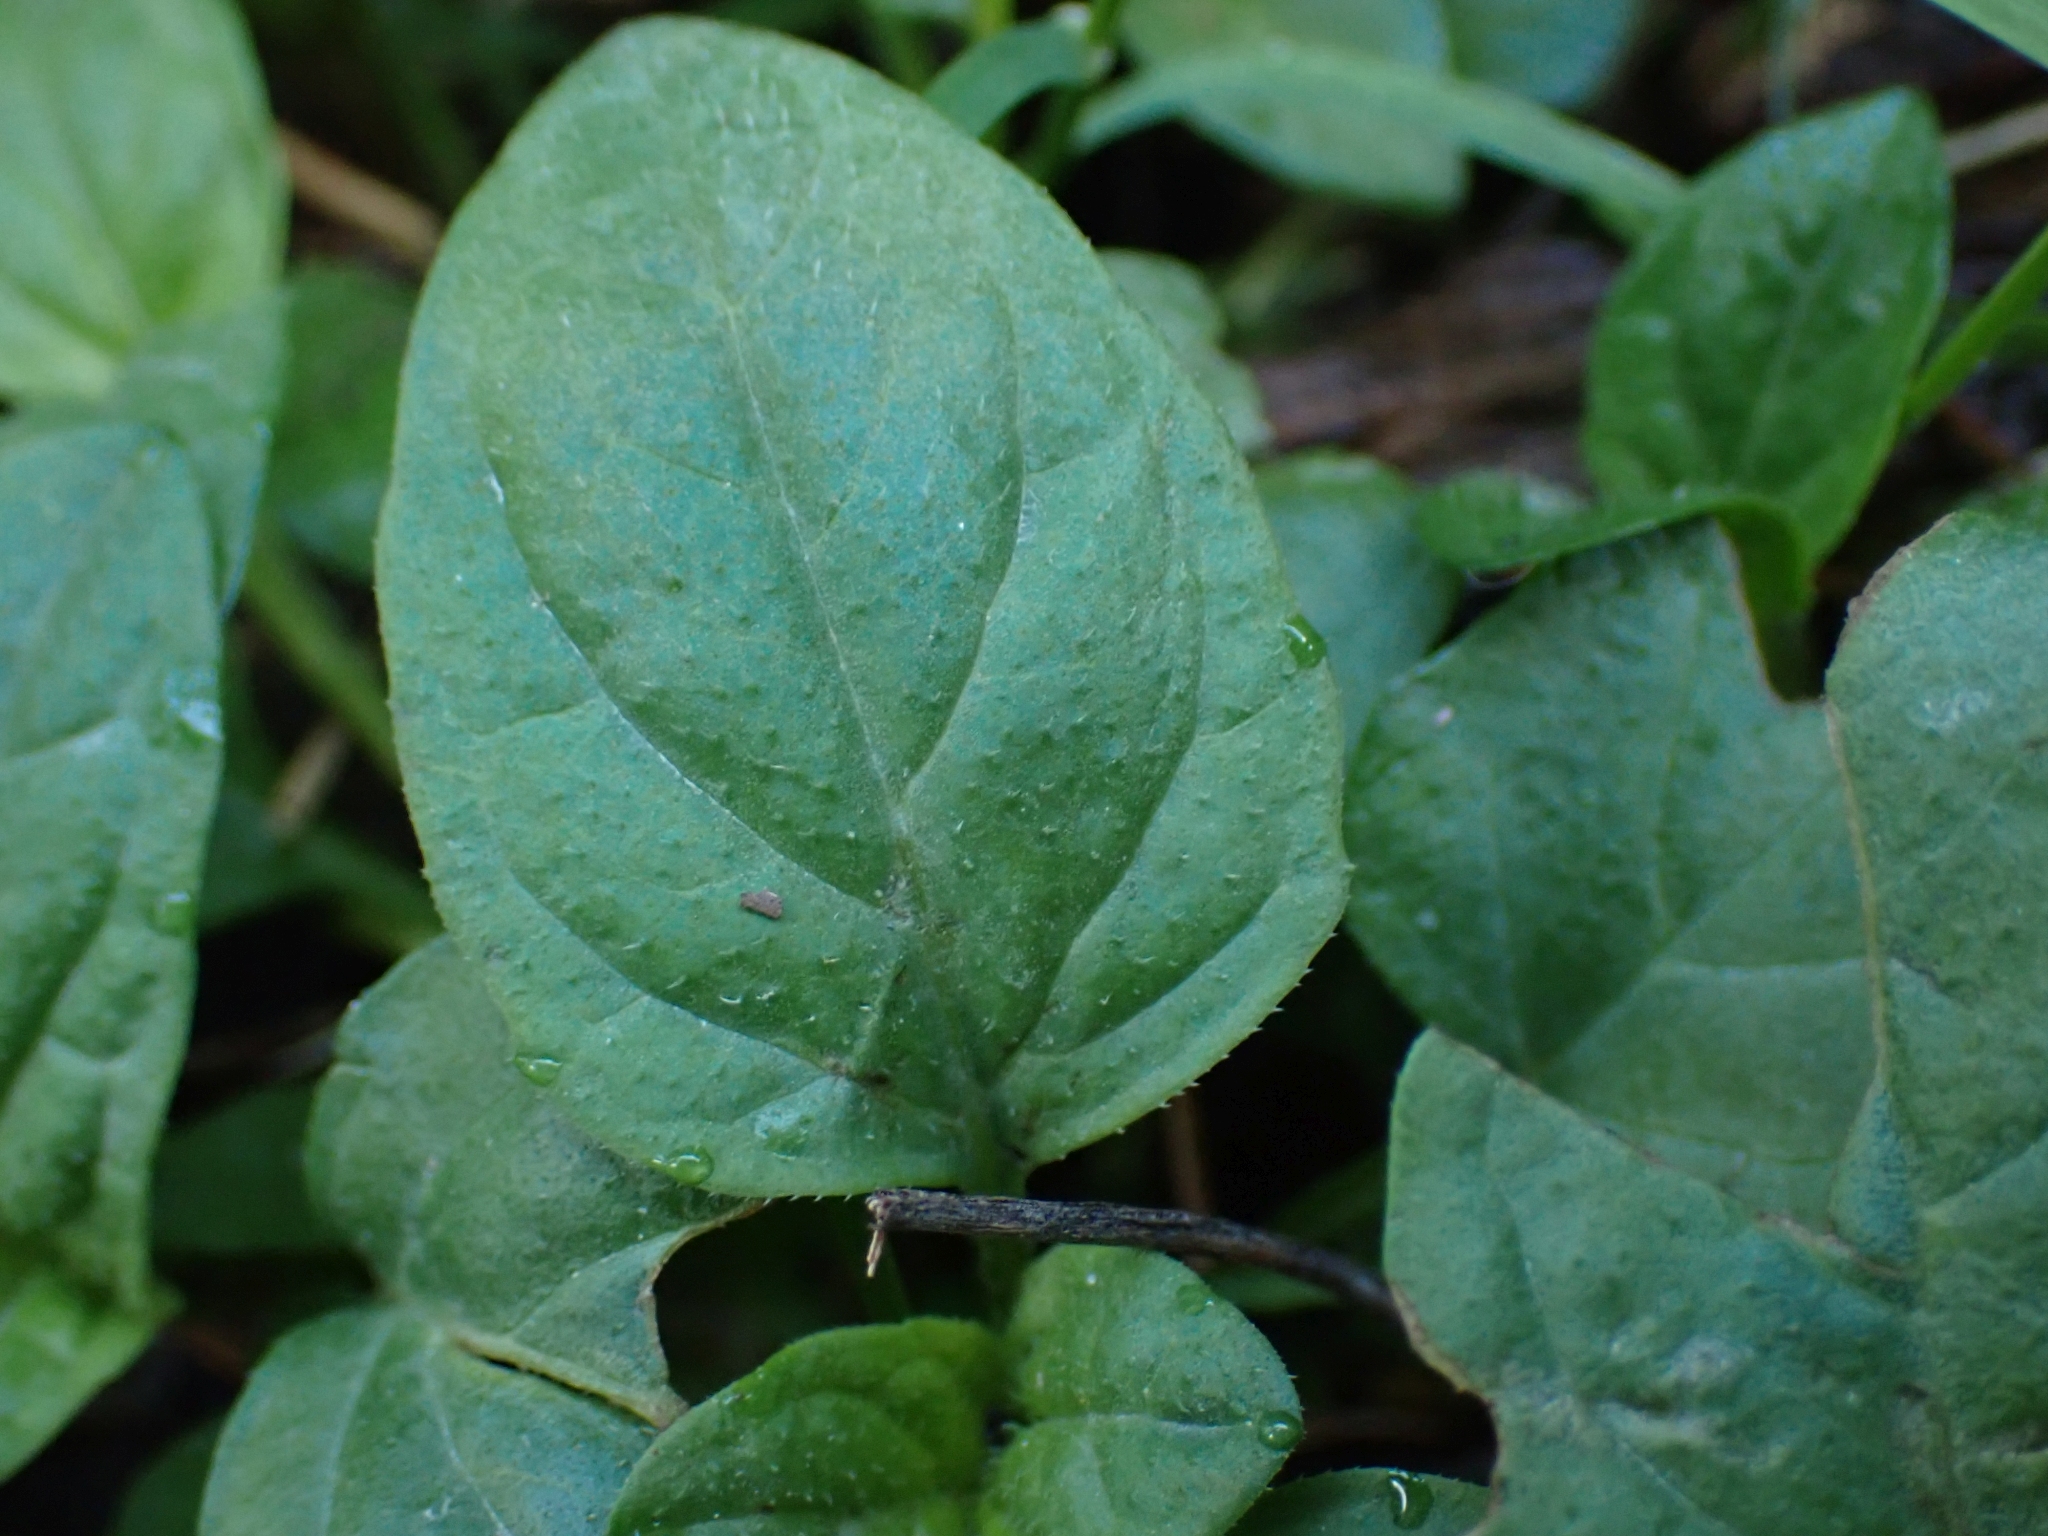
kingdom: Plantae
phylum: Tracheophyta
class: Magnoliopsida
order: Lamiales
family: Lamiaceae
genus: Prunella
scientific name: Prunella vulgaris
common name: Heal-all
